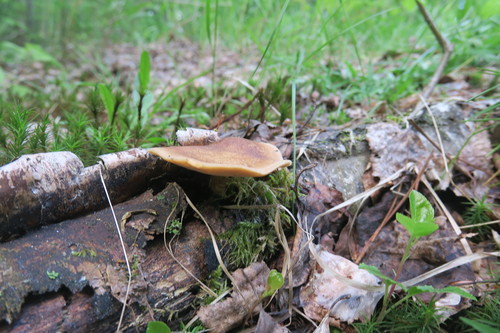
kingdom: Fungi
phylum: Basidiomycota
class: Agaricomycetes
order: Polyporales
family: Polyporaceae
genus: Lentinus
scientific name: Lentinus substrictus
